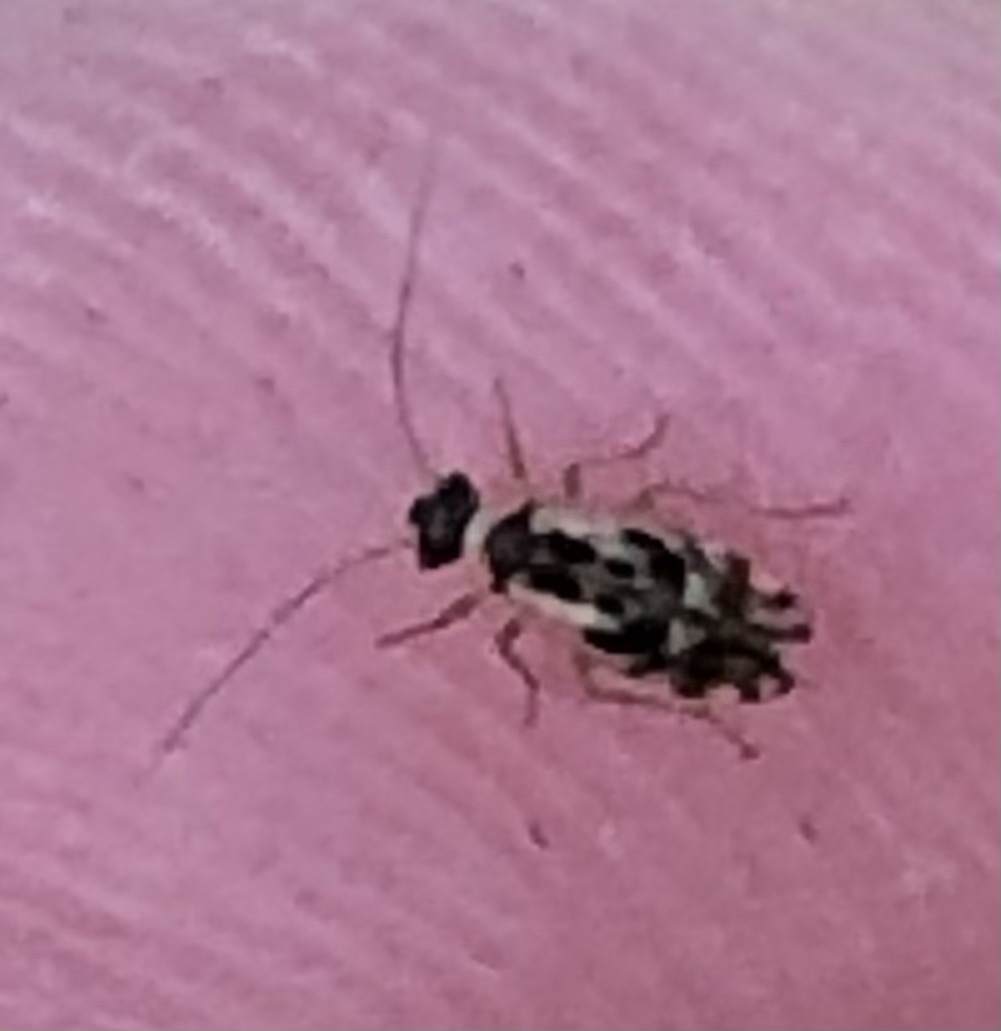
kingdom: Animalia
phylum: Arthropoda
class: Insecta
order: Psocodea
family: Stenopsocidae
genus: Graphopsocus
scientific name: Graphopsocus cruciatus
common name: Lizard bark louse
